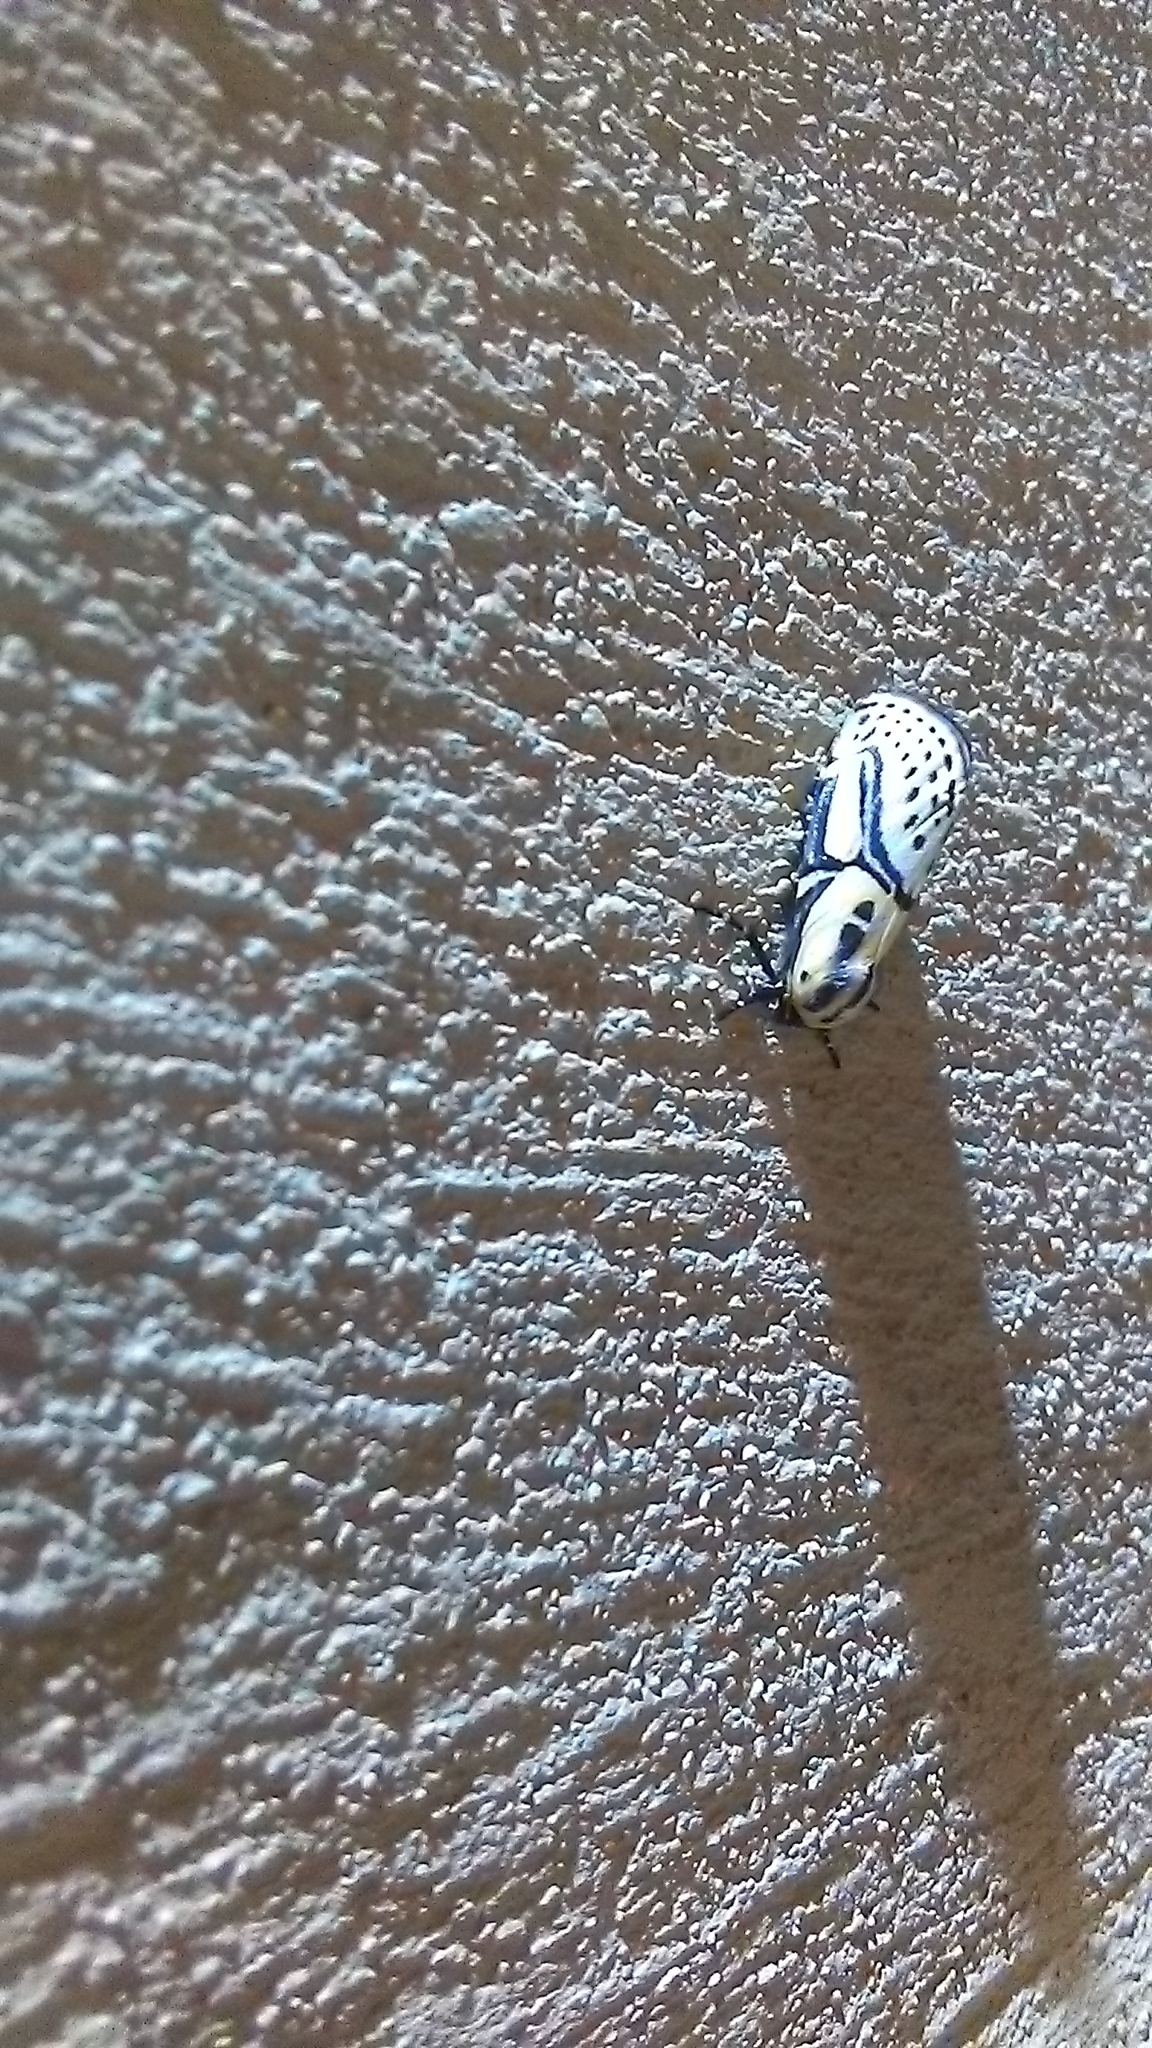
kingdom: Animalia
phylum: Arthropoda
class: Insecta
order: Lepidoptera
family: Erebidae
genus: Diphthera
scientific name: Diphthera festiva
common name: Hieroglyphic moth
